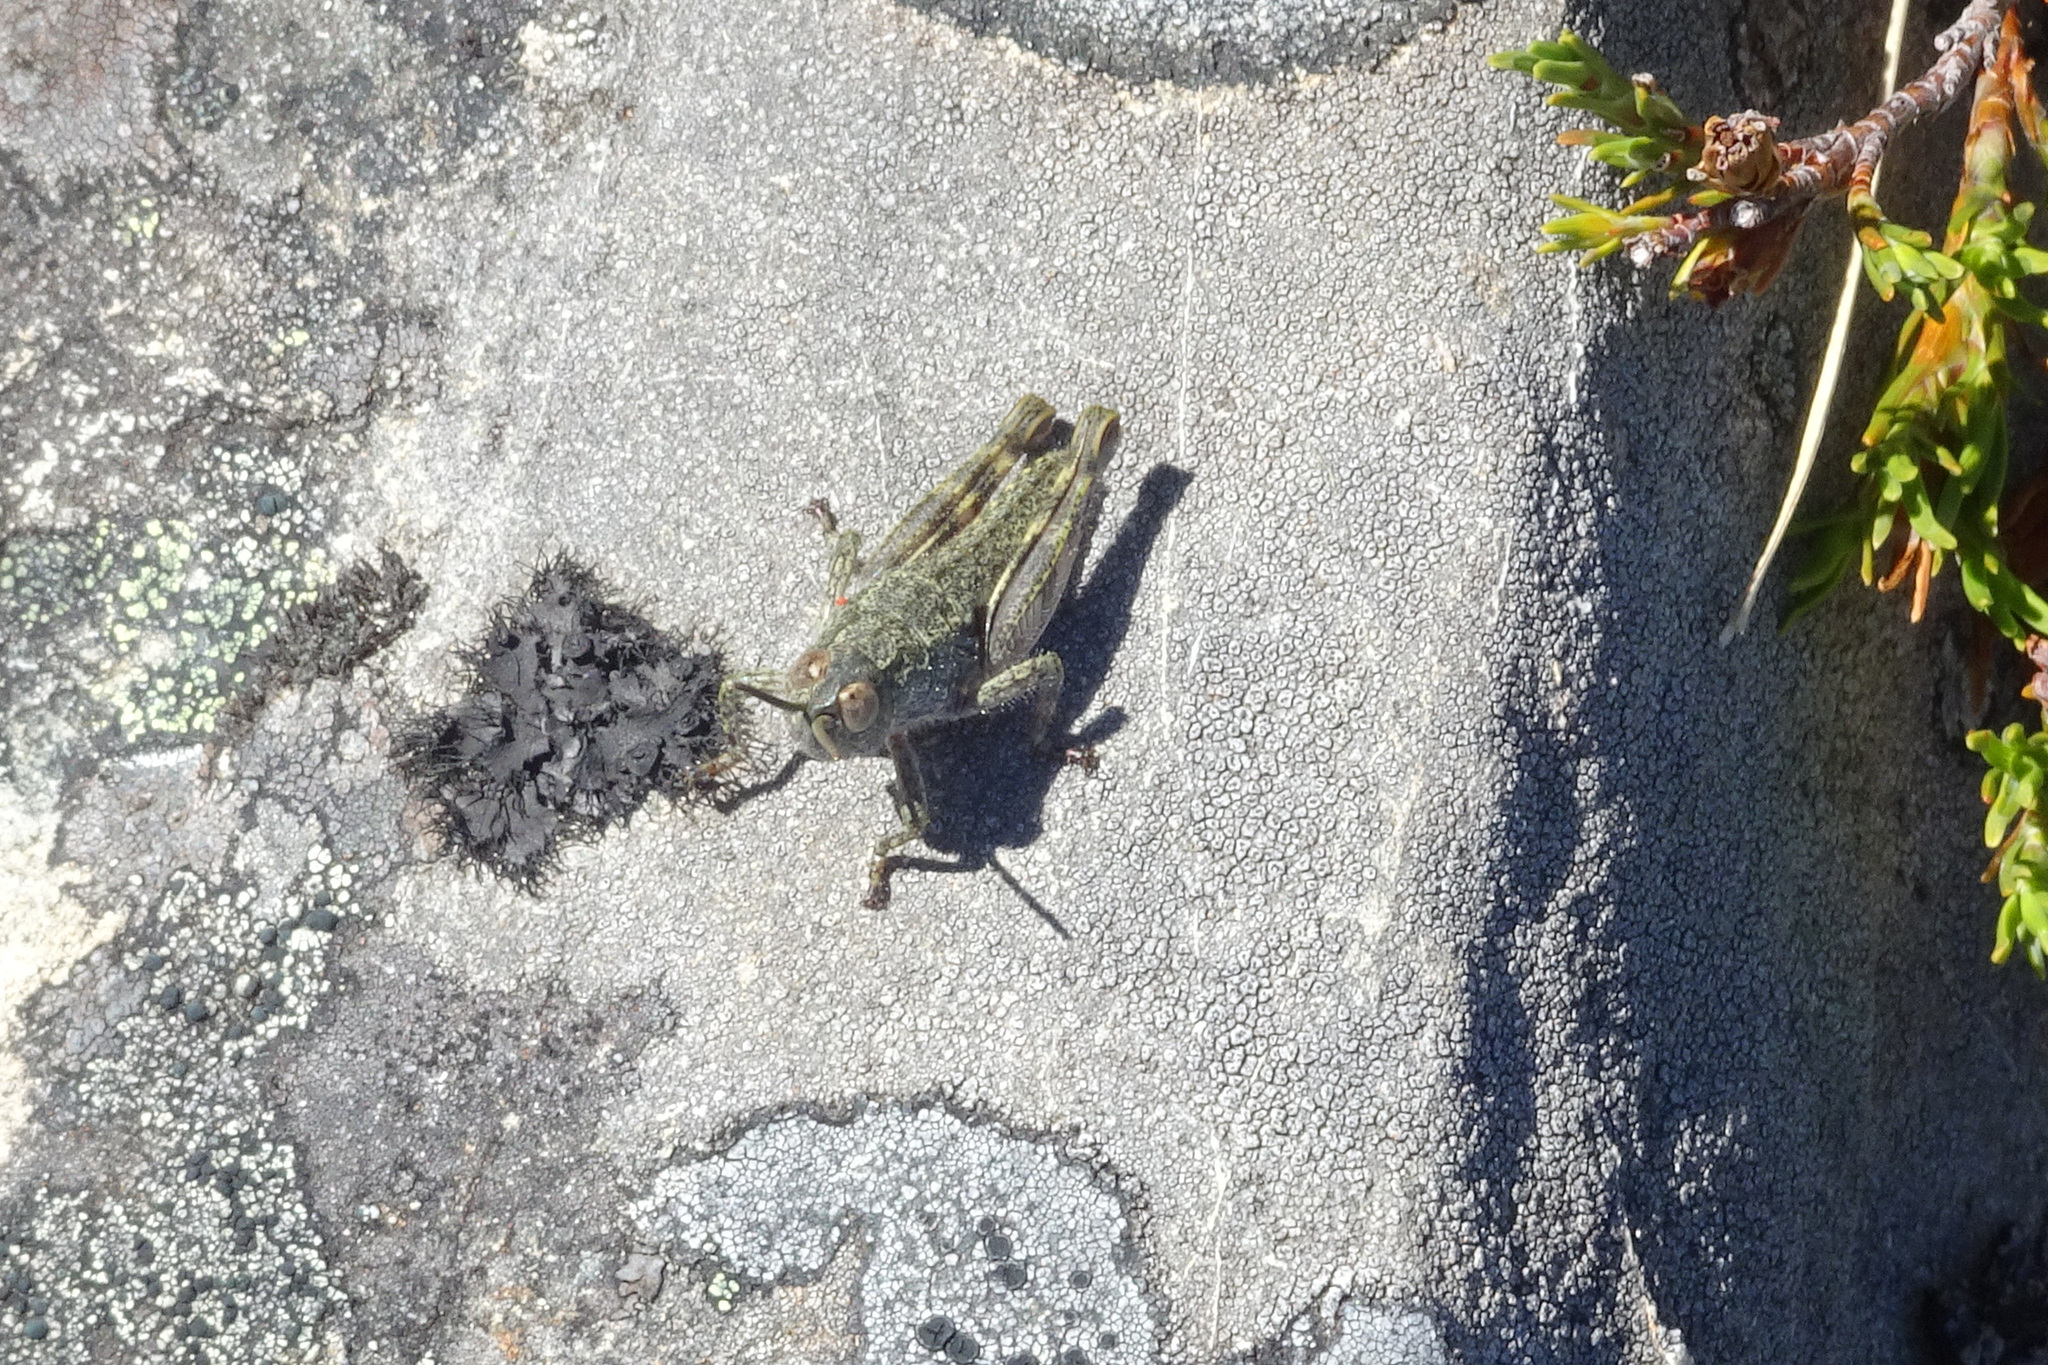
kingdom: Animalia
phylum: Arthropoda
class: Insecta
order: Orthoptera
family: Acrididae
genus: Sigaus
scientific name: Sigaus
